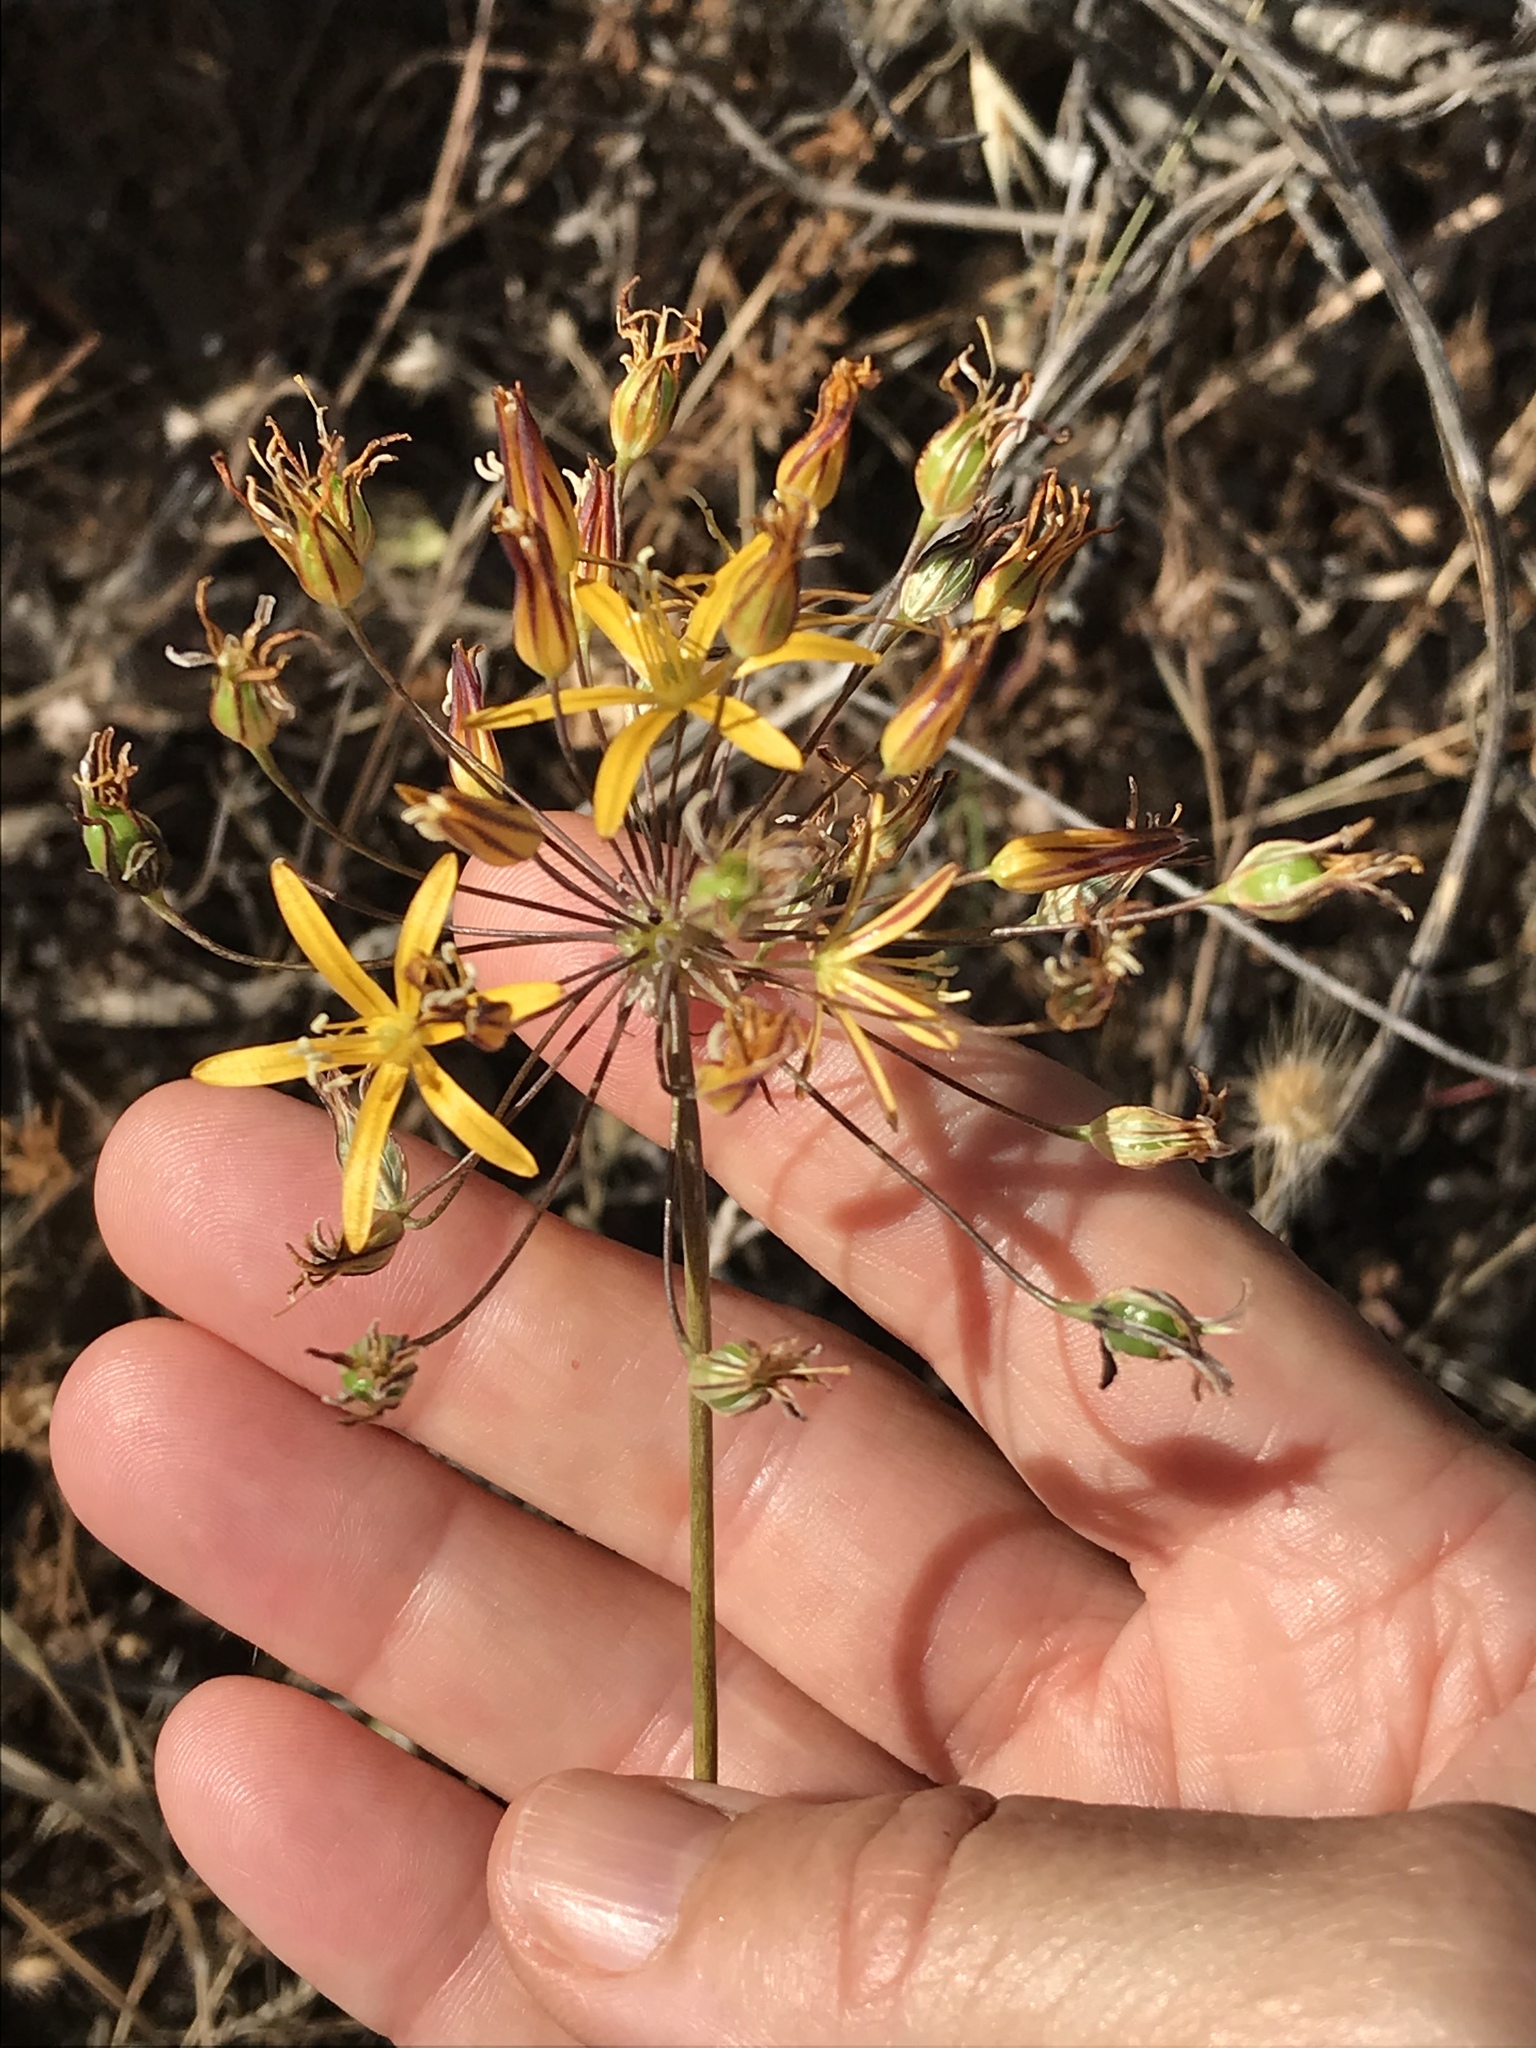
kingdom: Plantae
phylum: Tracheophyta
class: Liliopsida
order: Asparagales
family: Asparagaceae
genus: Bloomeria
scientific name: Bloomeria crocea
